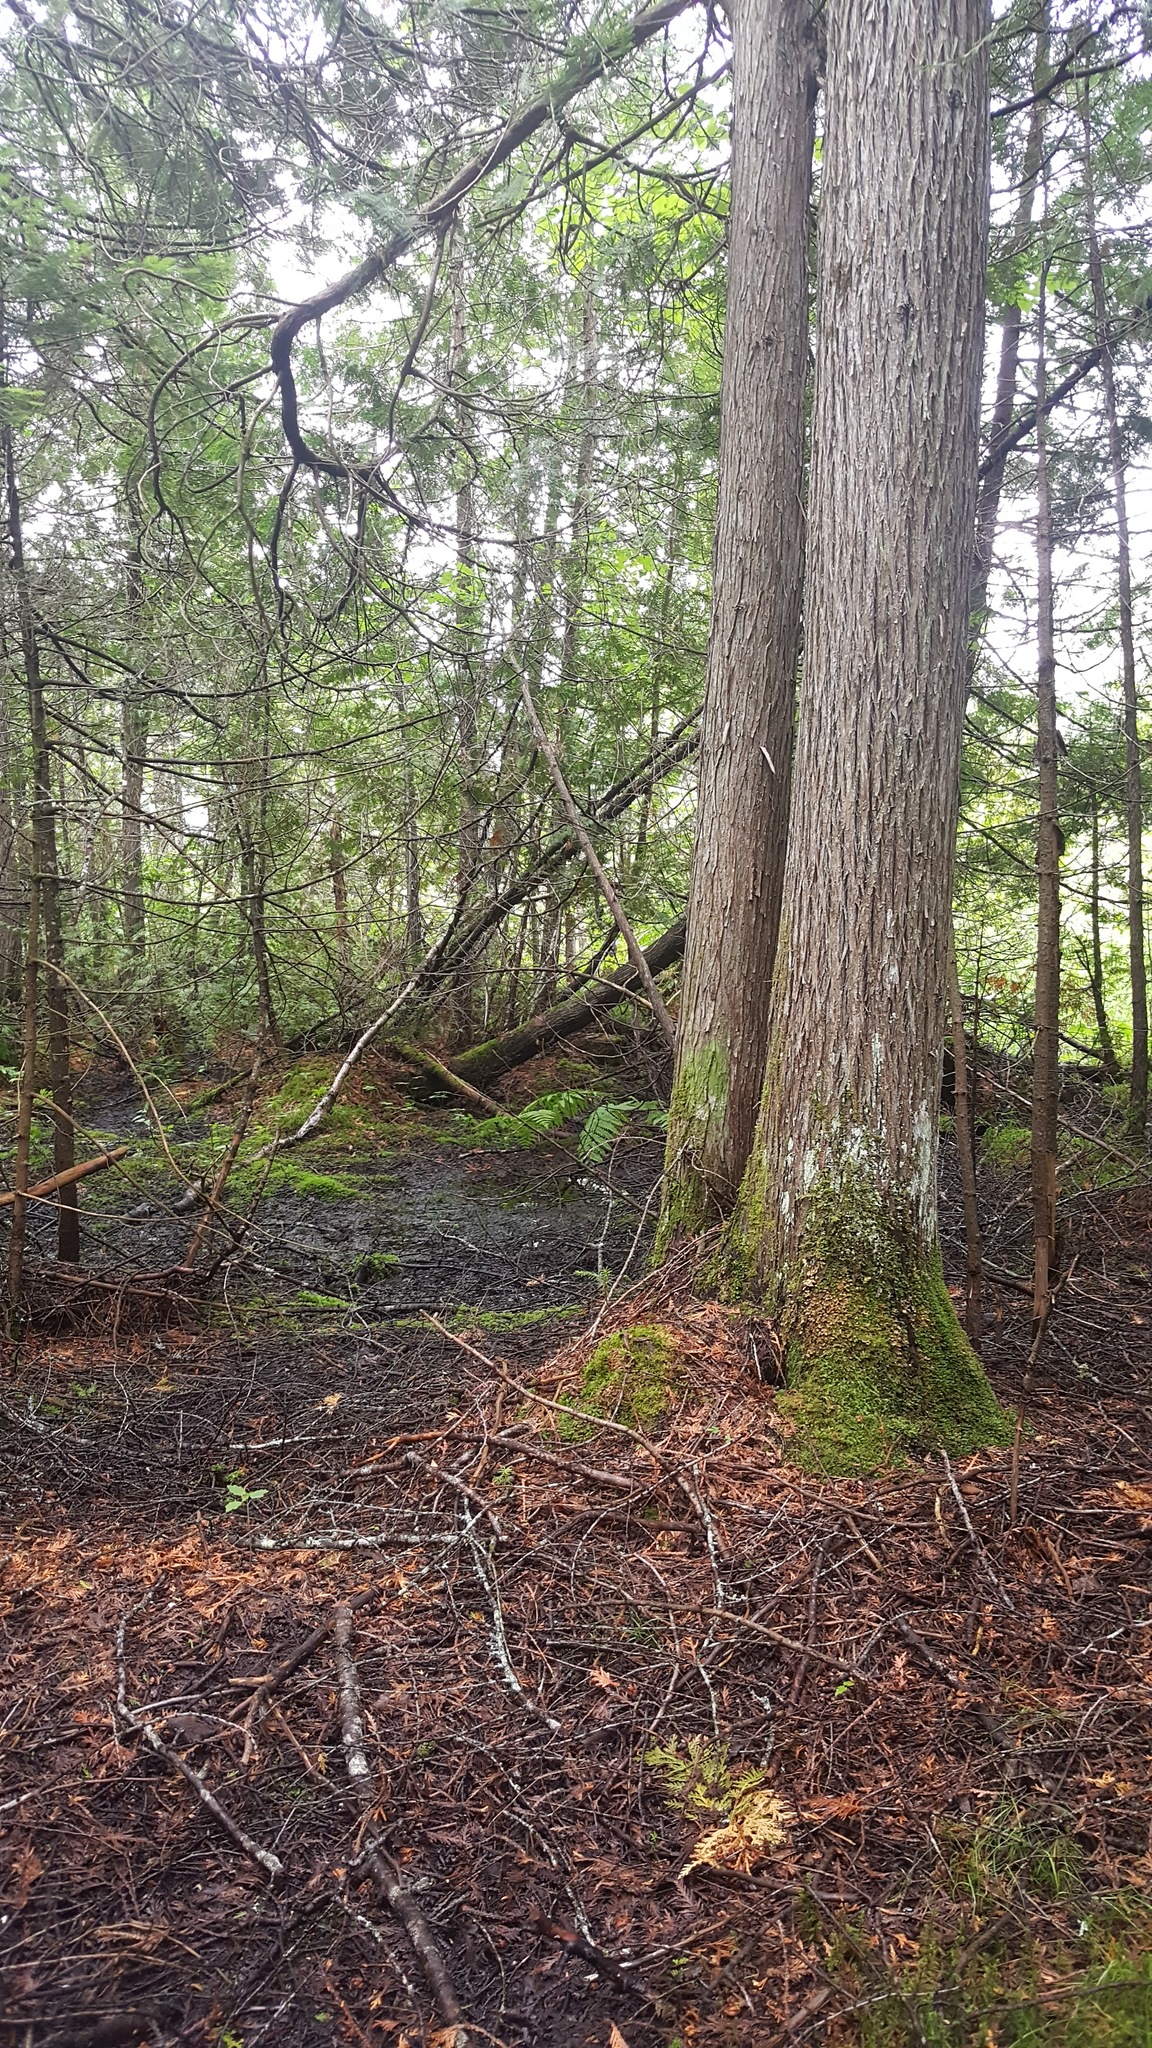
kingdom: Plantae
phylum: Tracheophyta
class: Pinopsida
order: Pinales
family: Cupressaceae
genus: Thuja
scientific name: Thuja occidentalis
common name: Northern white-cedar
